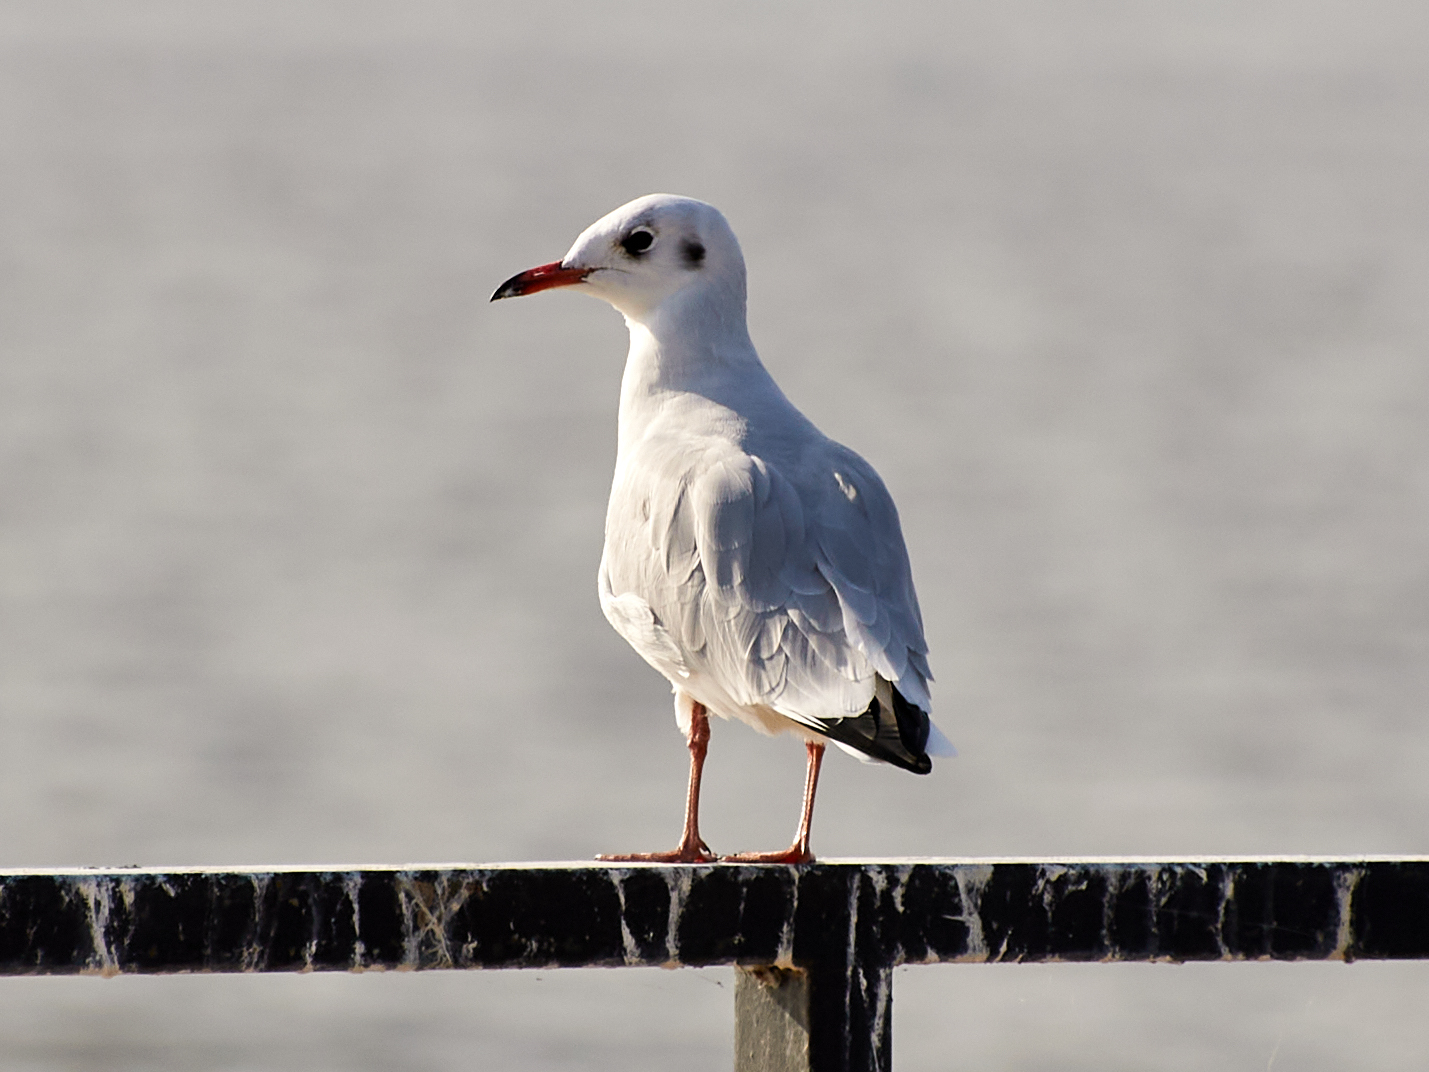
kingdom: Animalia
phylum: Chordata
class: Aves
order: Charadriiformes
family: Laridae
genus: Chroicocephalus
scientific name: Chroicocephalus ridibundus
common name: Black-headed gull
